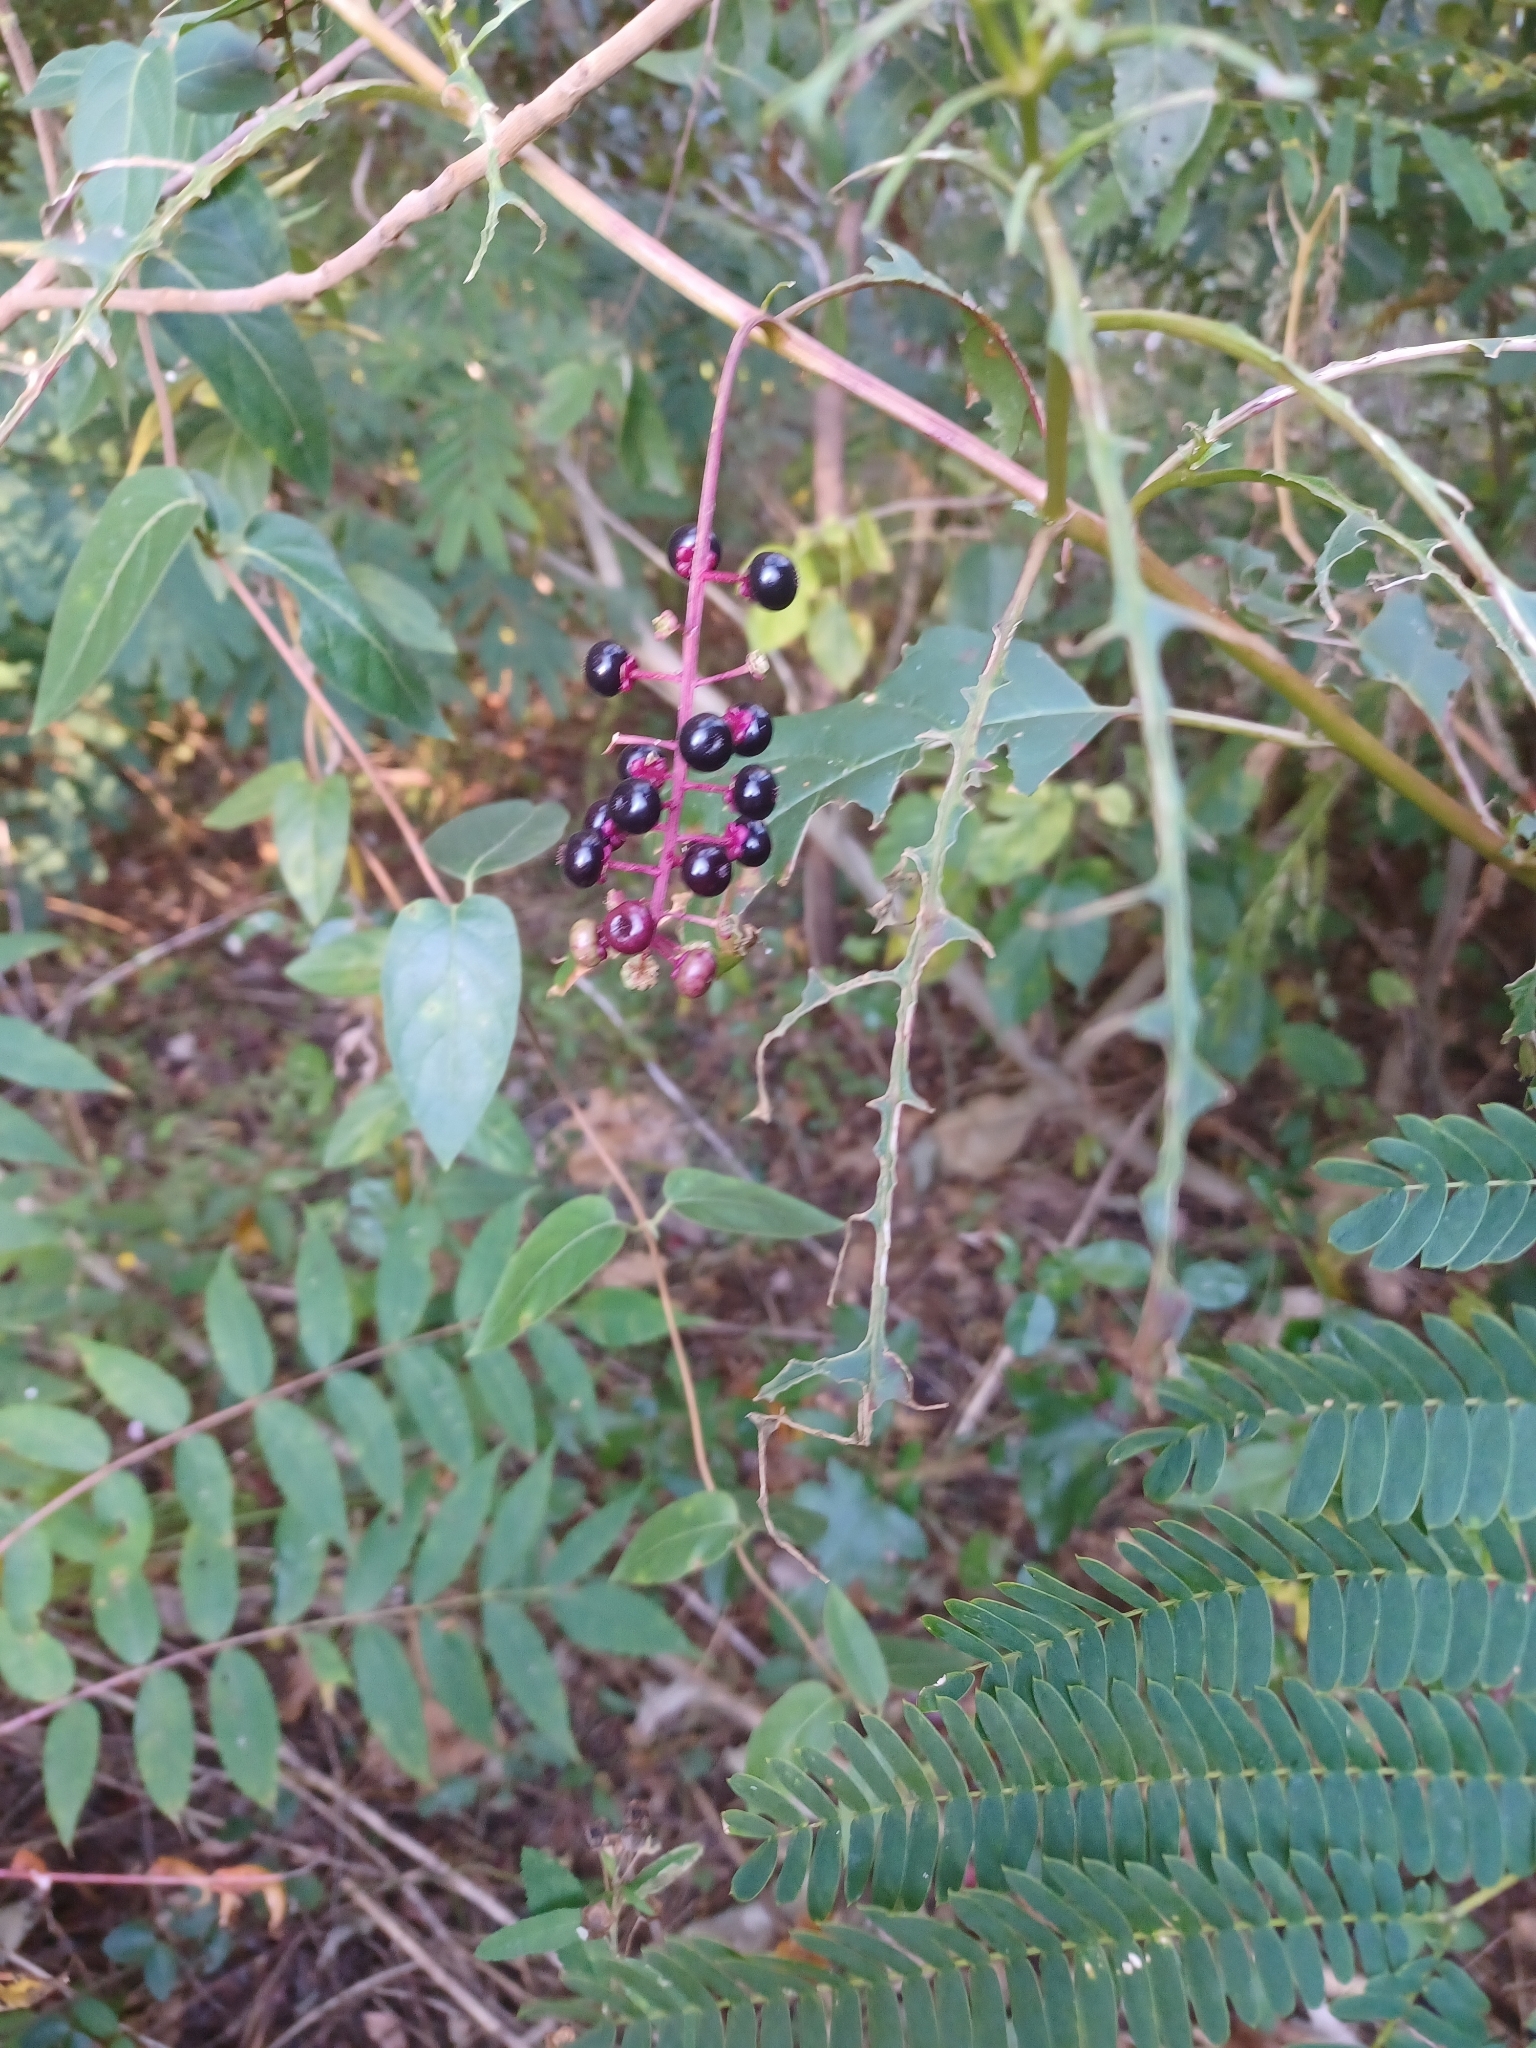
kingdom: Plantae
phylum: Tracheophyta
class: Magnoliopsida
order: Caryophyllales
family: Phytolaccaceae
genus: Phytolacca
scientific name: Phytolacca americana
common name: American pokeweed
